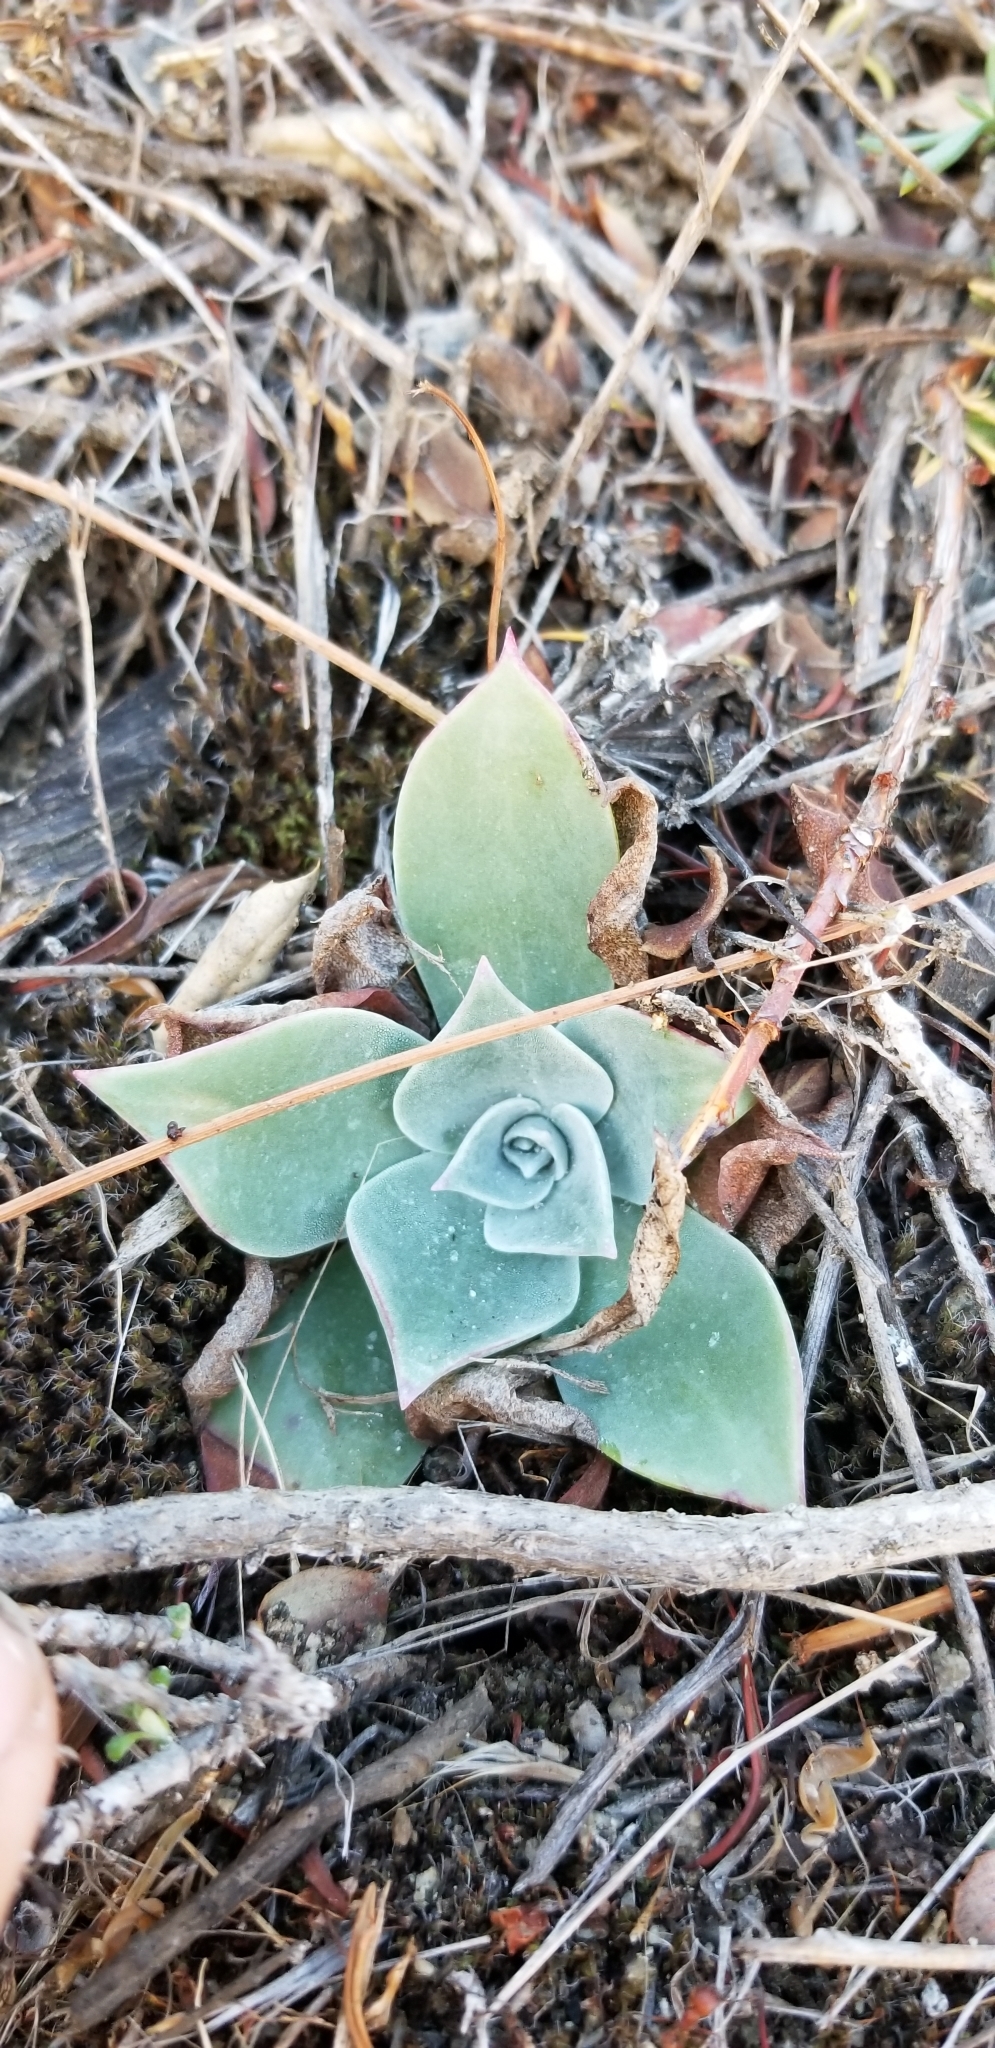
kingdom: Plantae
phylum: Tracheophyta
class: Magnoliopsida
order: Saxifragales
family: Crassulaceae
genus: Dudleya
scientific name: Dudleya pulverulenta
